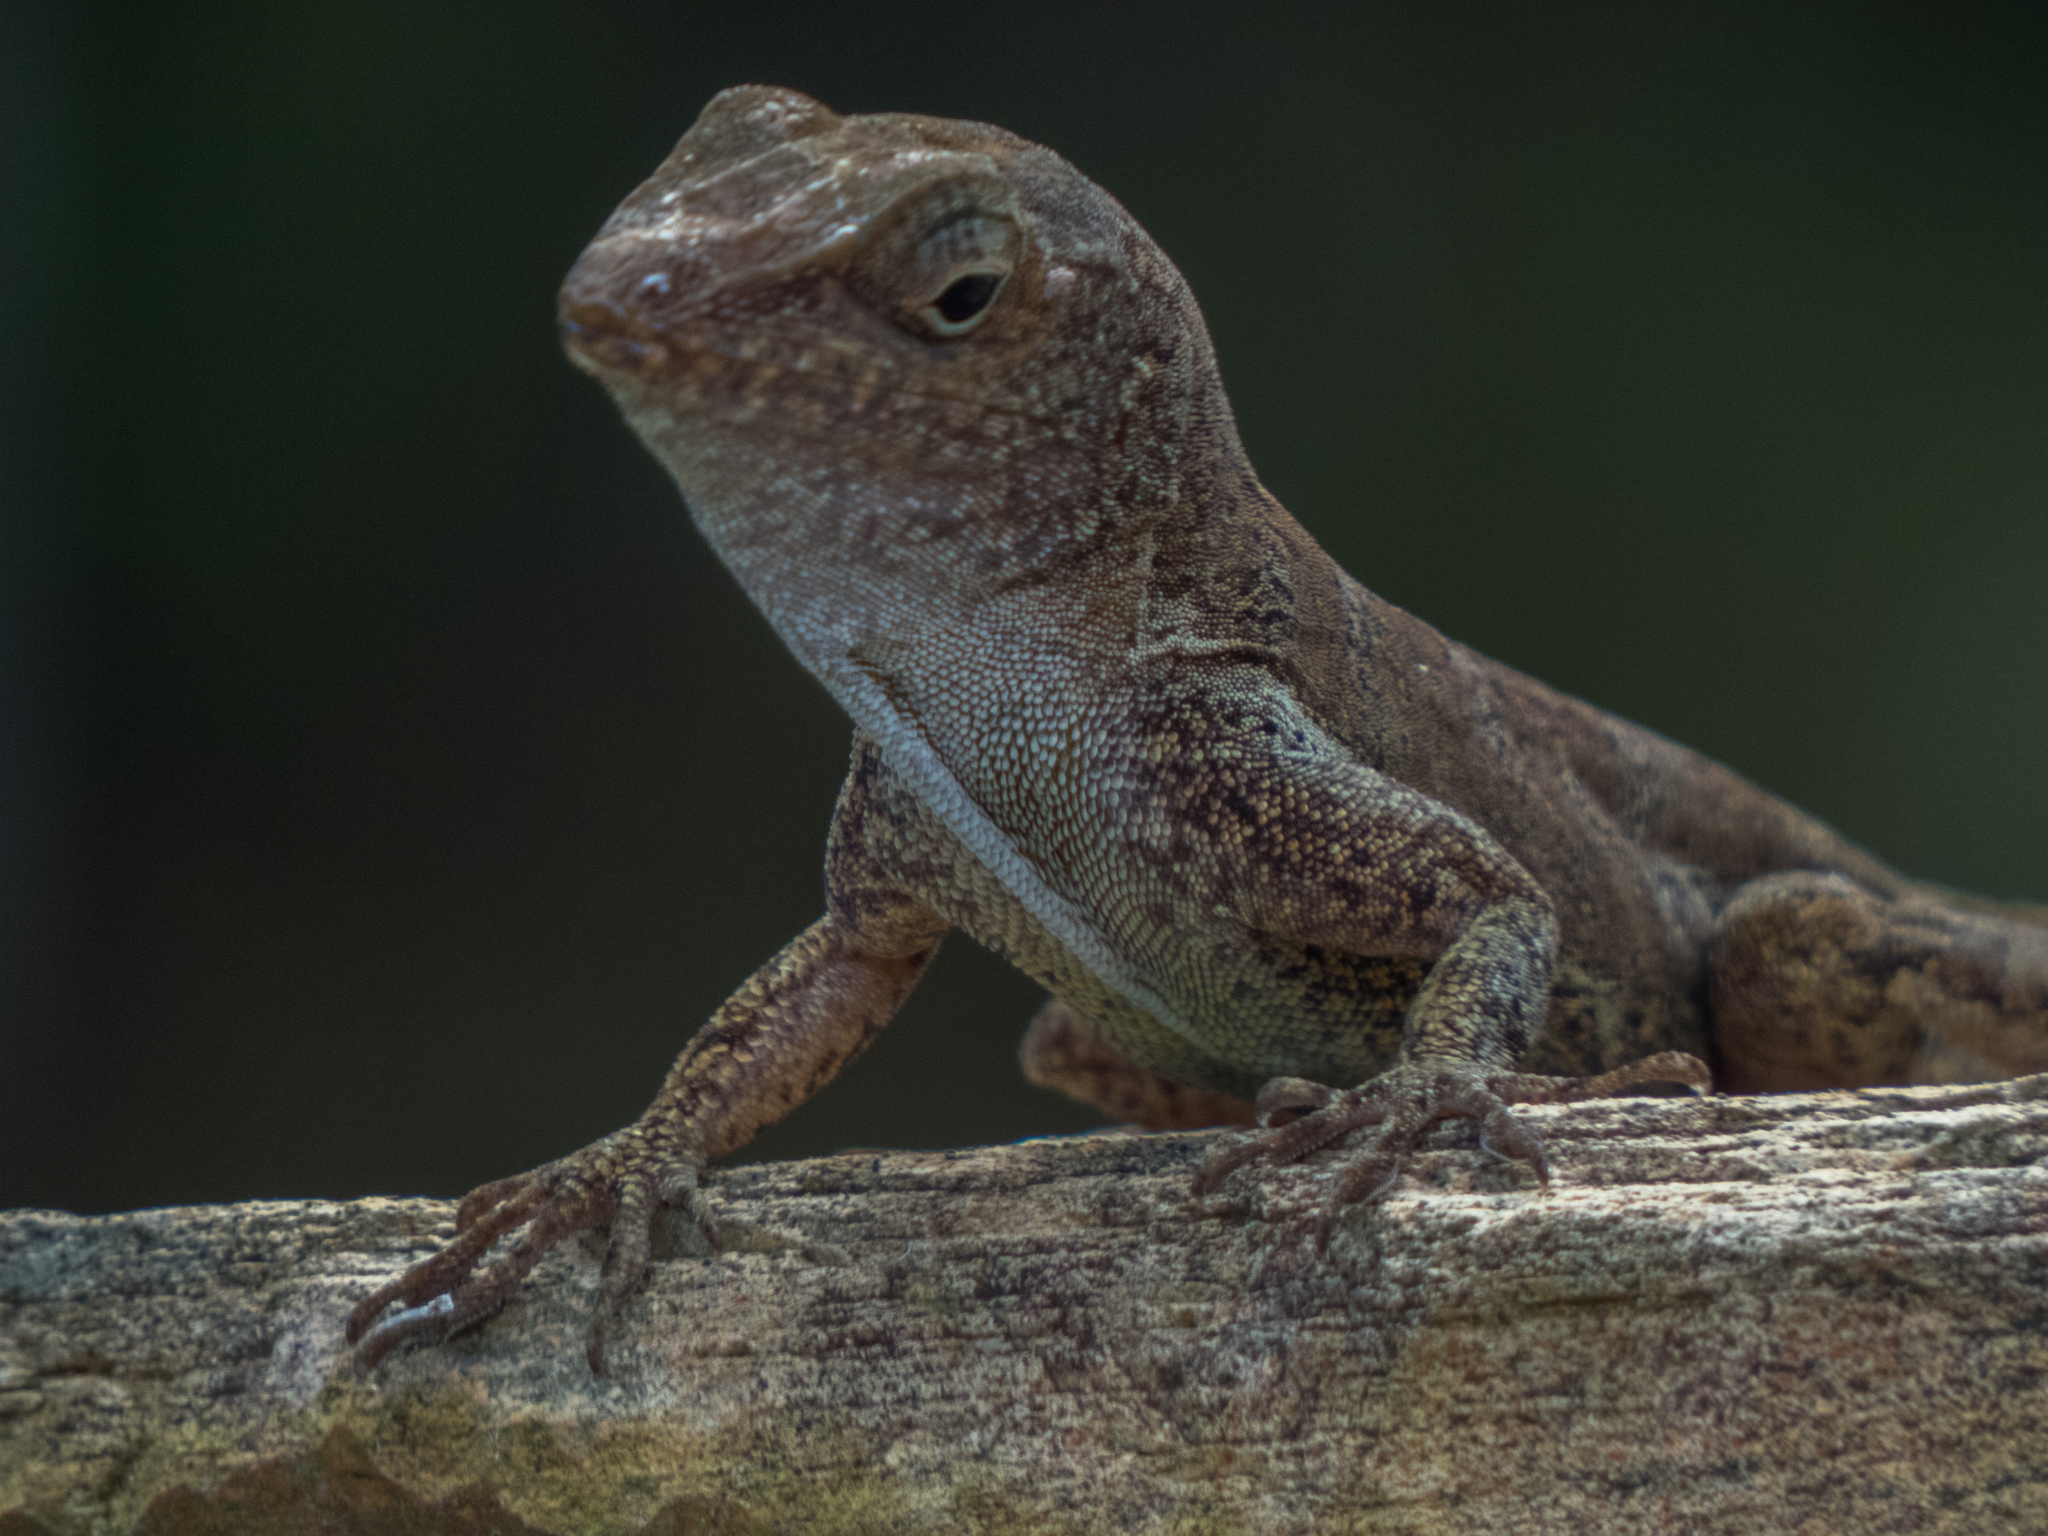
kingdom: Animalia
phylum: Chordata
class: Squamata
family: Dactyloidae
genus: Anolis
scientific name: Anolis cristatellus
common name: Crested anole
